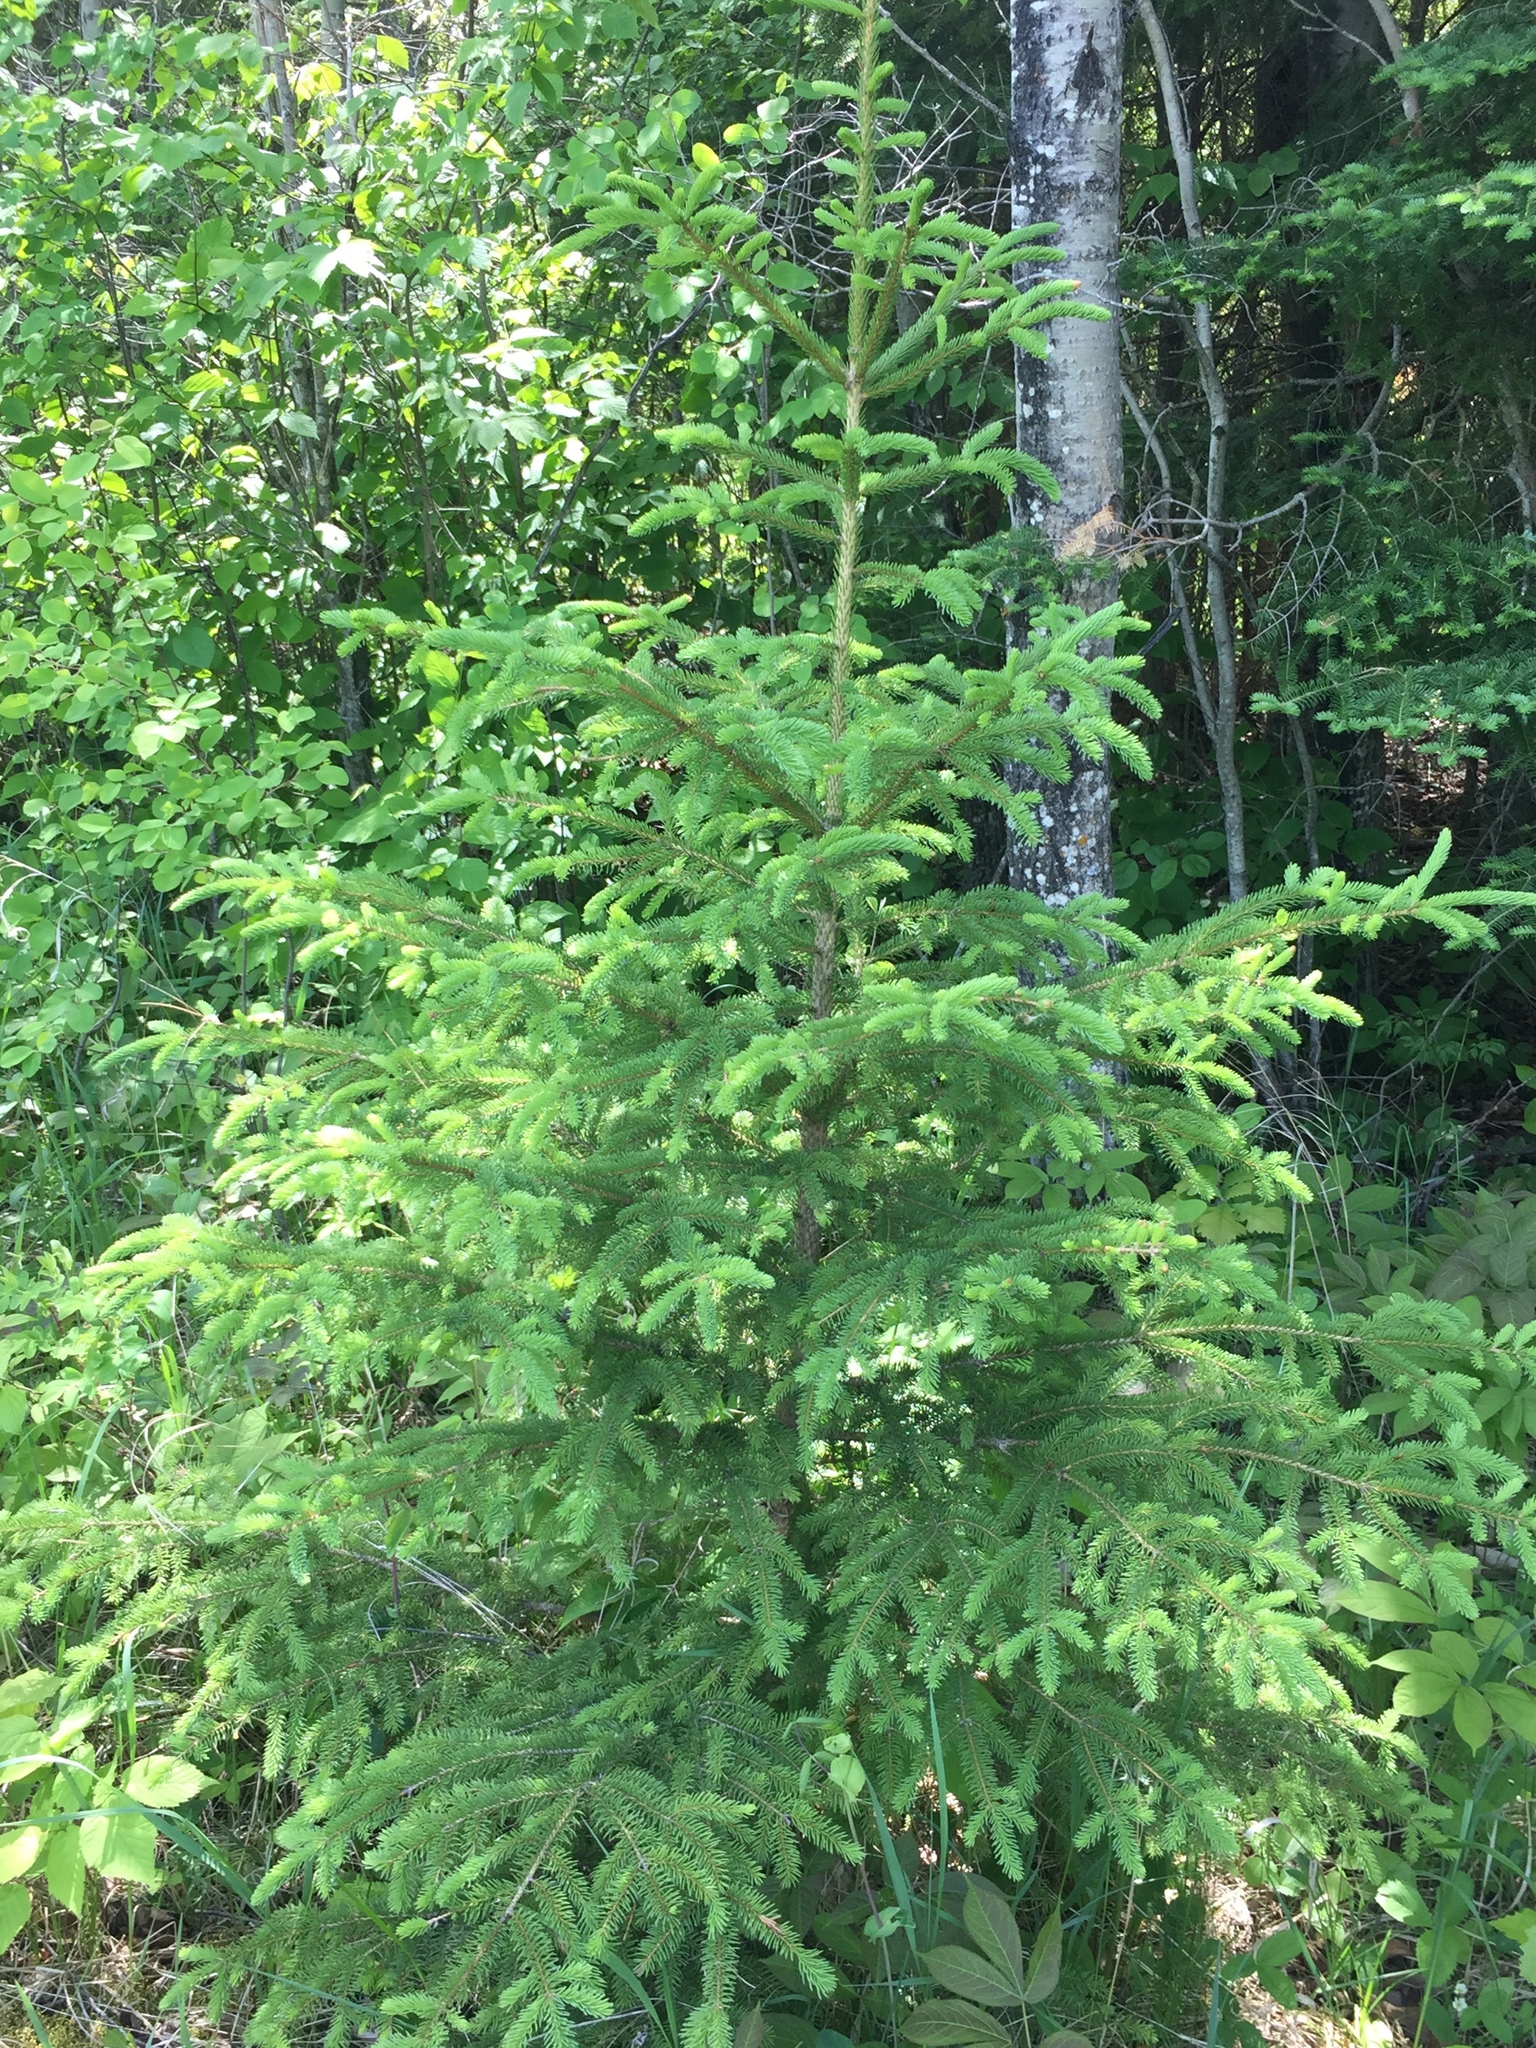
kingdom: Plantae
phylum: Tracheophyta
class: Pinopsida
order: Pinales
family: Pinaceae
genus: Picea
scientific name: Picea glauca
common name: White spruce
